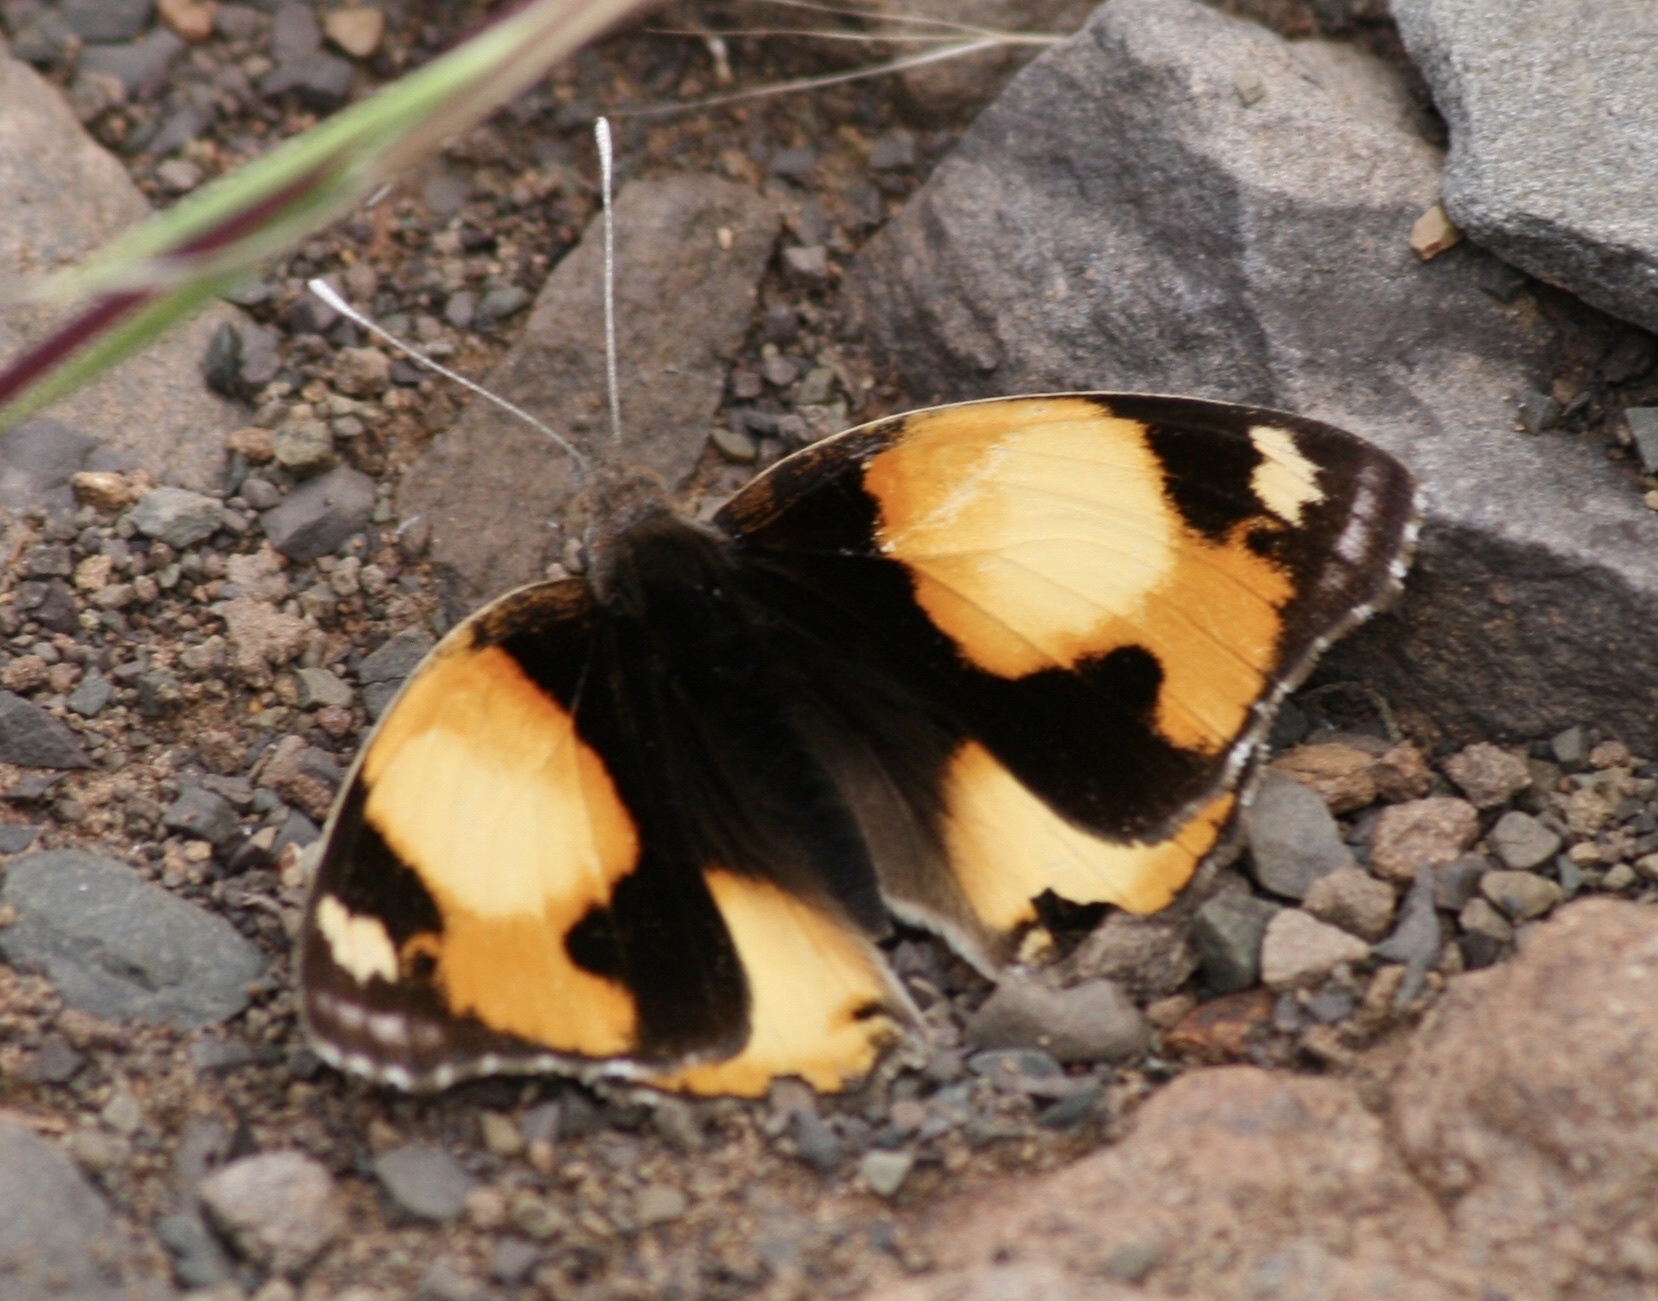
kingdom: Animalia
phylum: Arthropoda
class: Insecta
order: Lepidoptera
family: Nymphalidae
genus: Junonia
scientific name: Junonia hierta
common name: Yellow pansy
